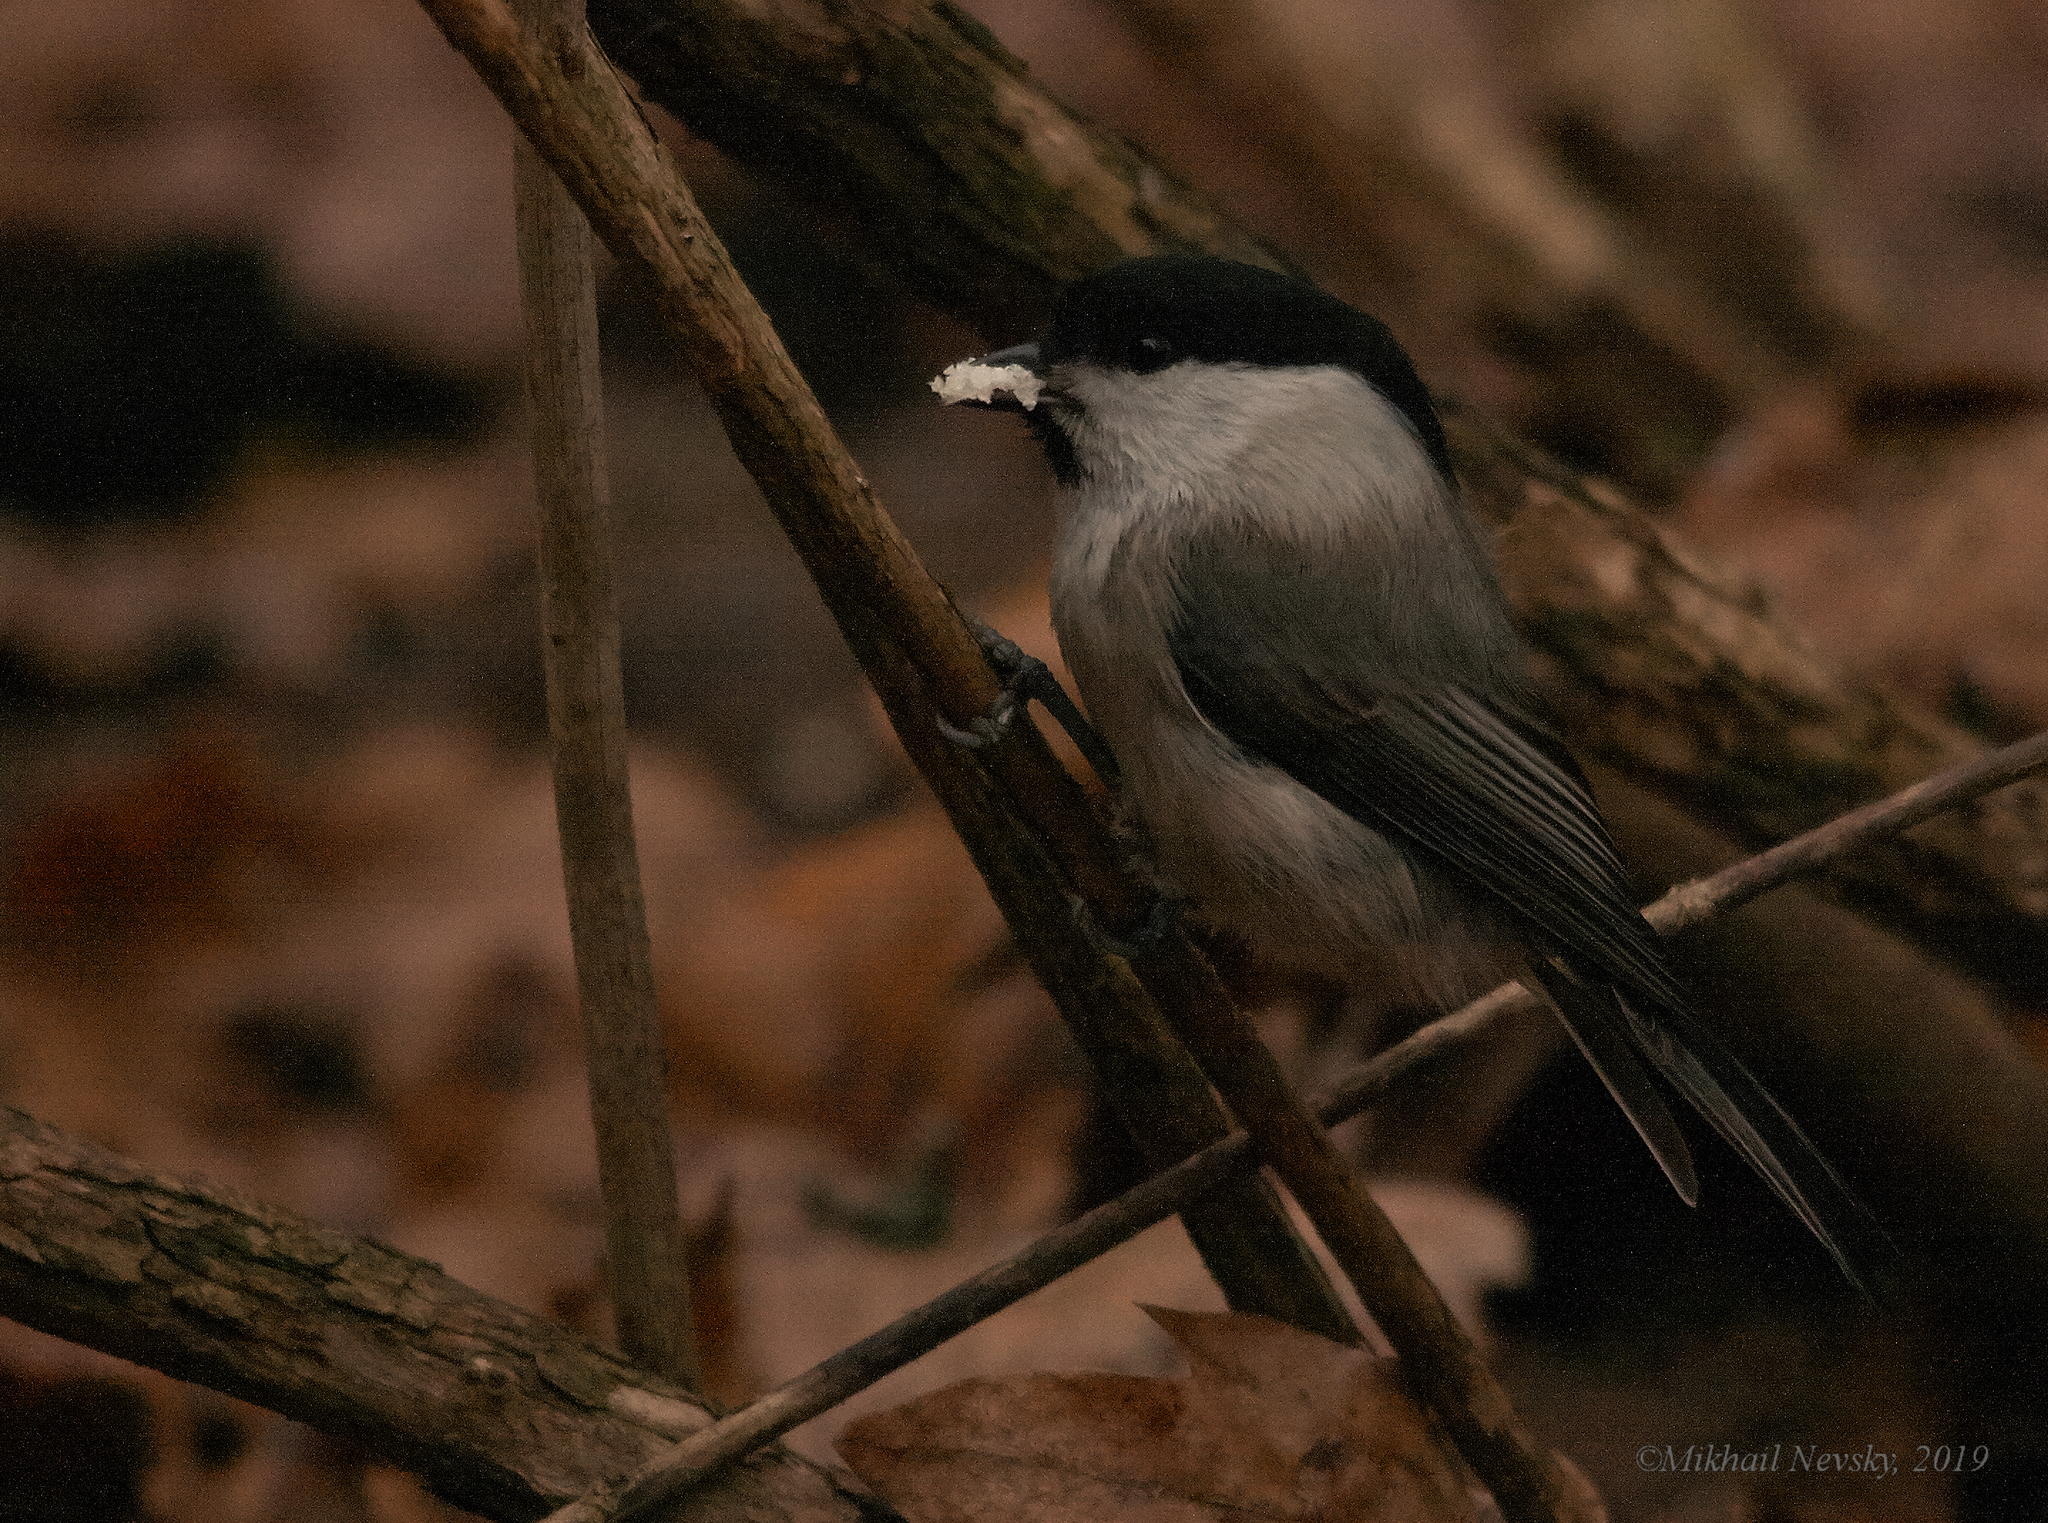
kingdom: Animalia
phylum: Chordata
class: Aves
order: Passeriformes
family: Paridae
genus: Poecile
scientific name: Poecile montanus
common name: Willow tit
